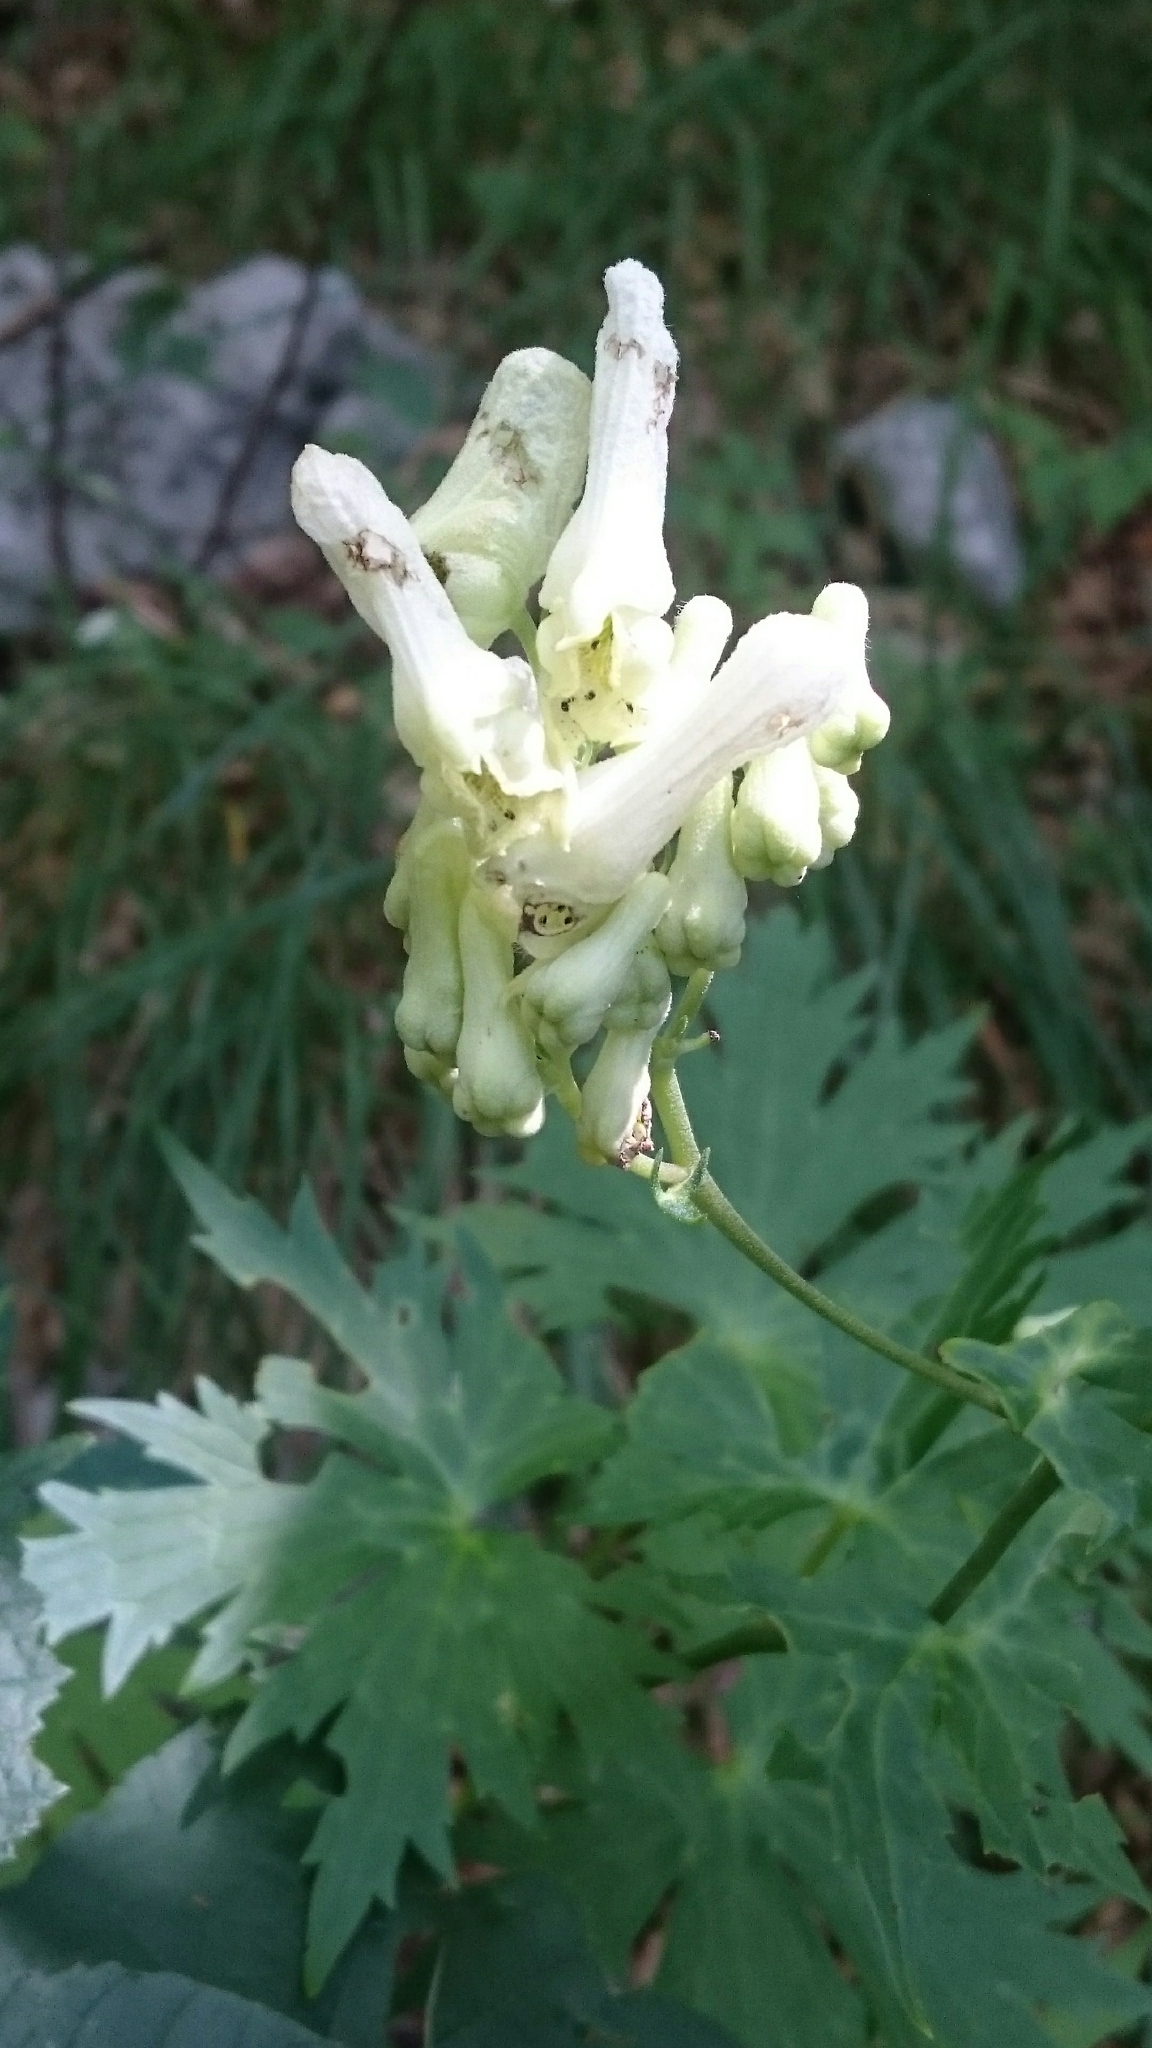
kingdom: Plantae
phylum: Tracheophyta
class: Magnoliopsida
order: Ranunculales
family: Ranunculaceae
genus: Aconitum
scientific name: Aconitum lycoctonum
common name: Wolf's-bane
